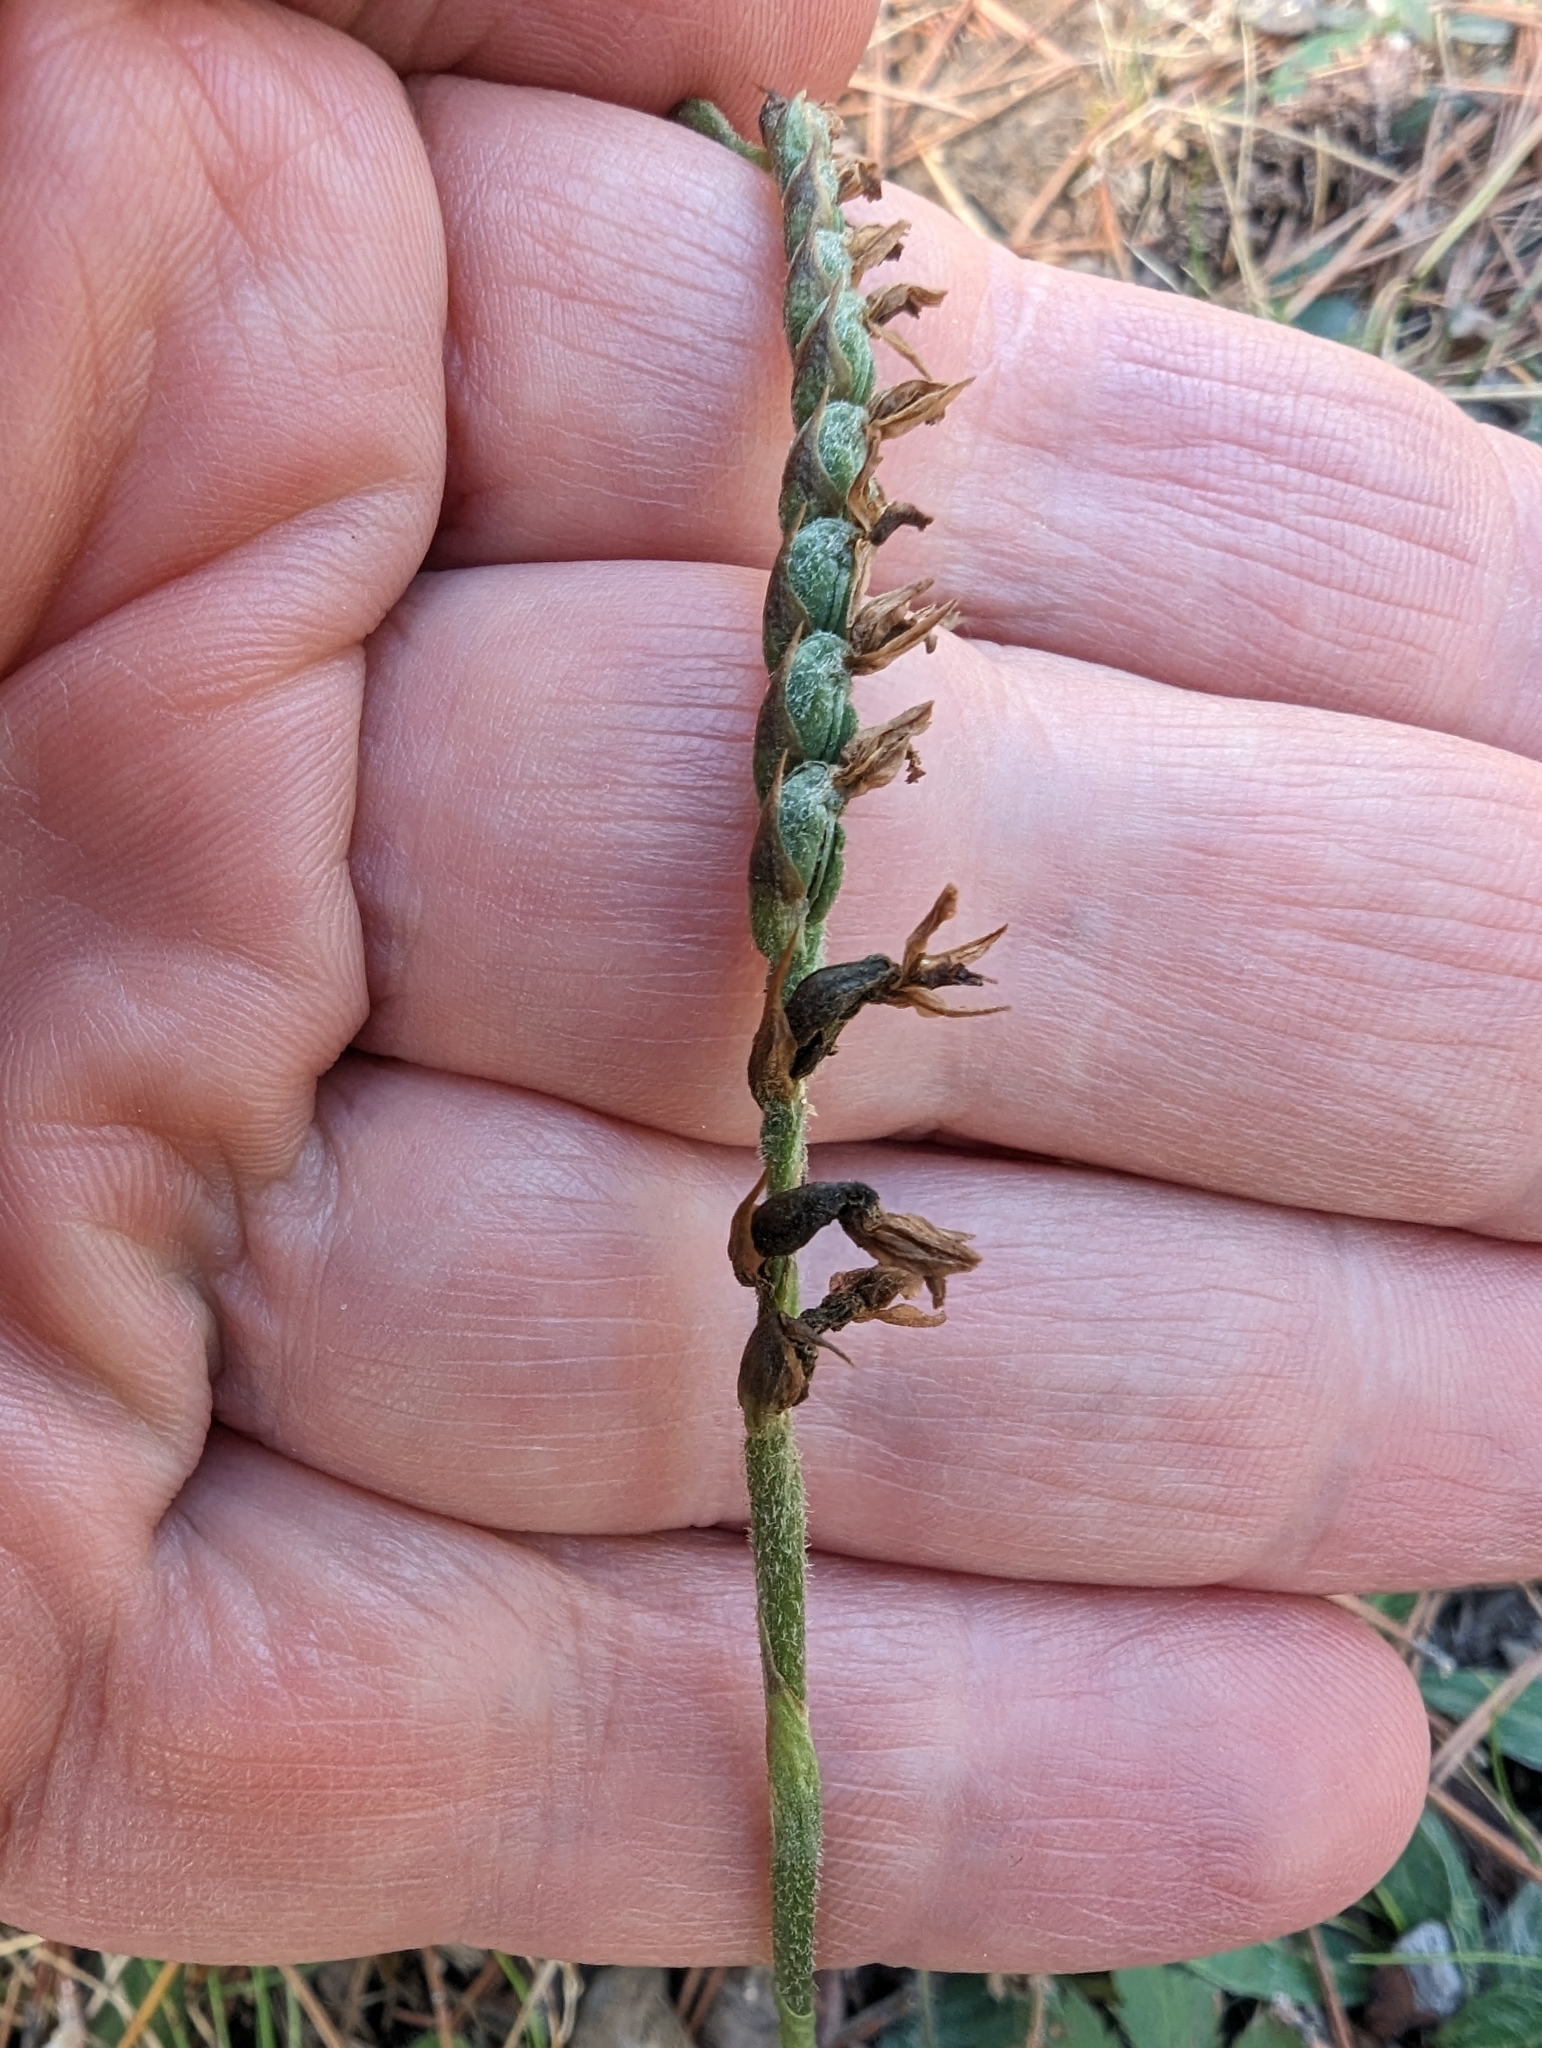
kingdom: Plantae
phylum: Tracheophyta
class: Liliopsida
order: Asparagales
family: Orchidaceae
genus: Spiranthes
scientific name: Spiranthes spiralis
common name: Autumn lady's-tresses
